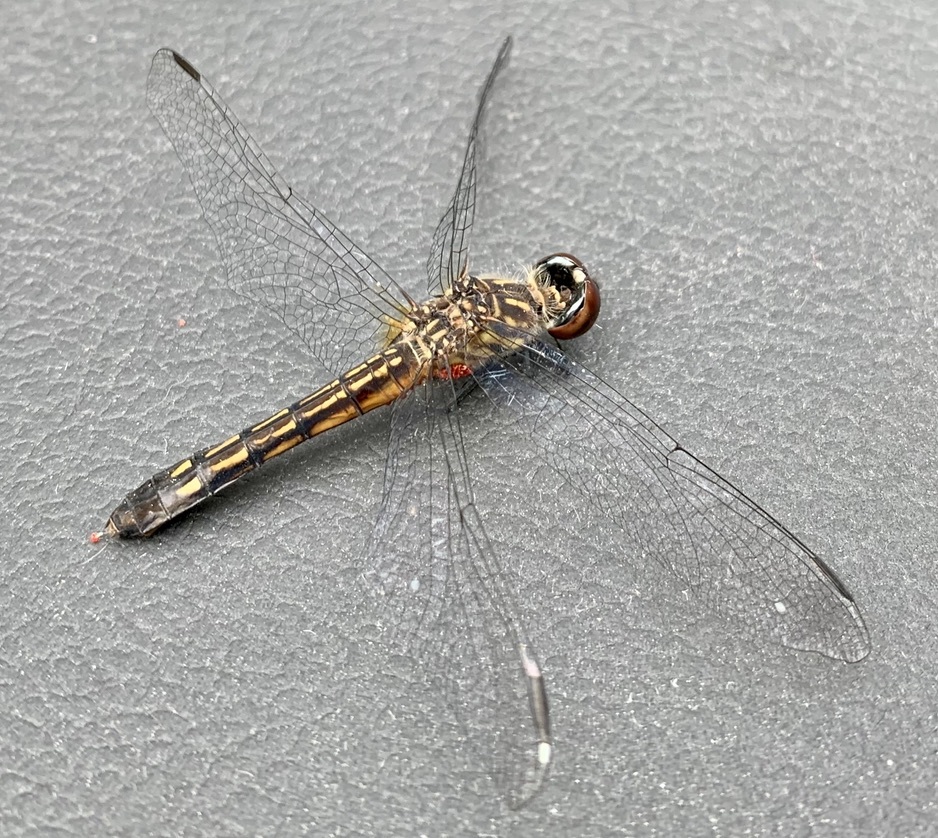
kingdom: Animalia
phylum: Arthropoda
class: Insecta
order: Odonata
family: Libellulidae
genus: Pachydiplax
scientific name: Pachydiplax longipennis
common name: Blue dasher
